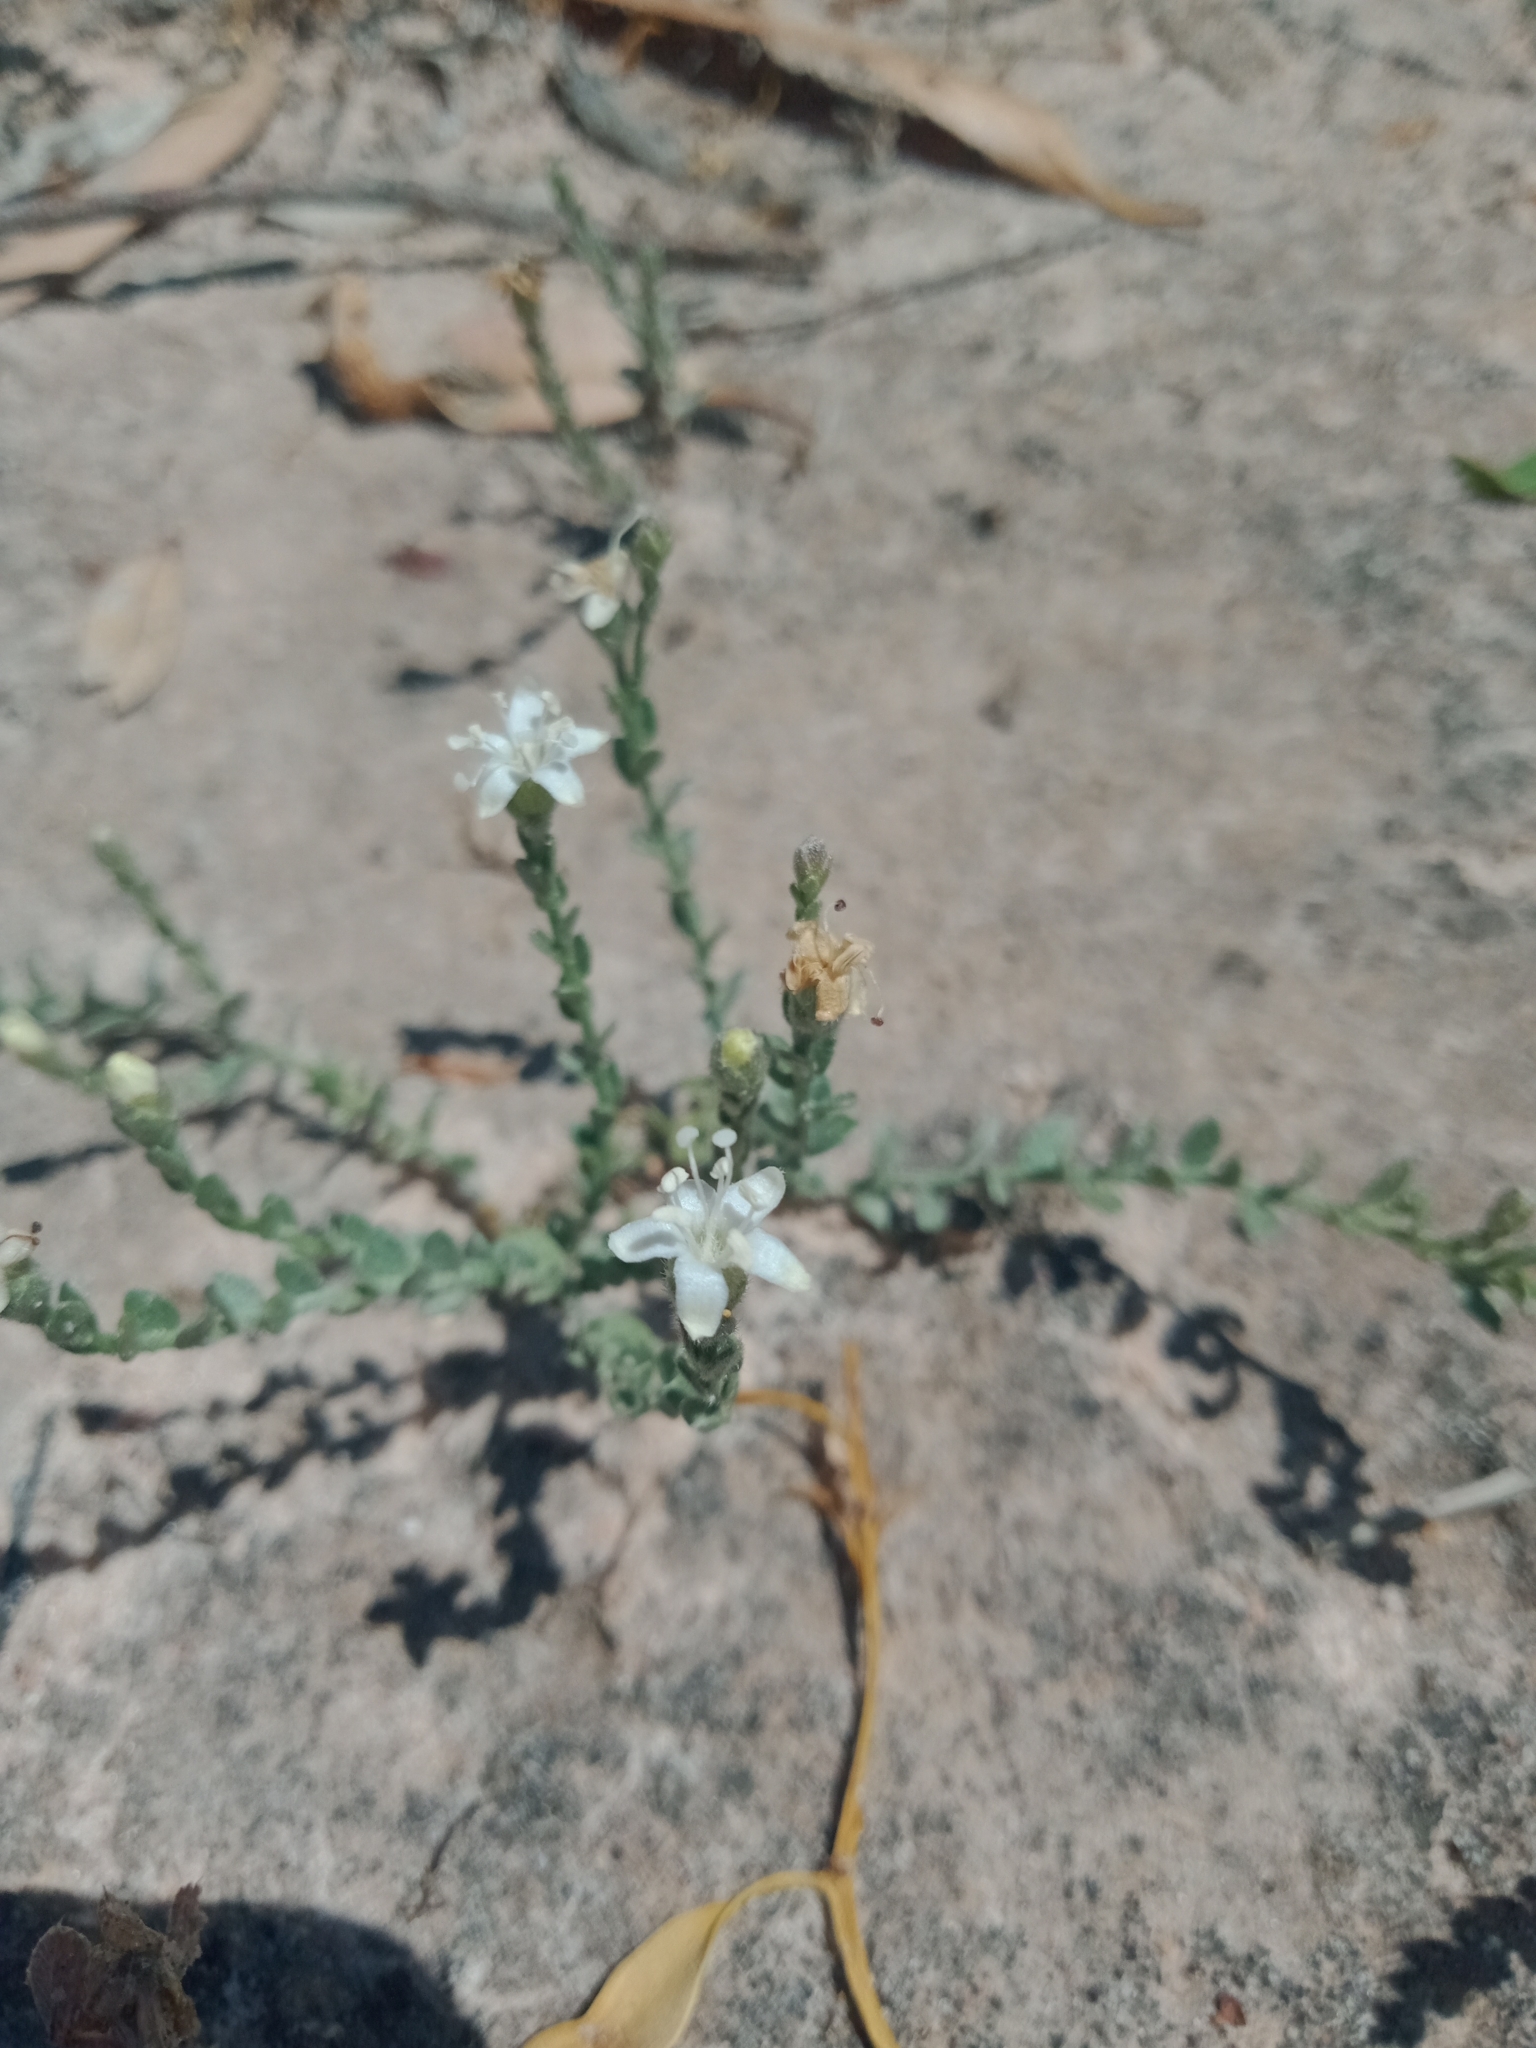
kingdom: Plantae
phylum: Tracheophyta
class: Magnoliopsida
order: Solanales
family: Convolvulaceae
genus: Cressa
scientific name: Cressa australis
